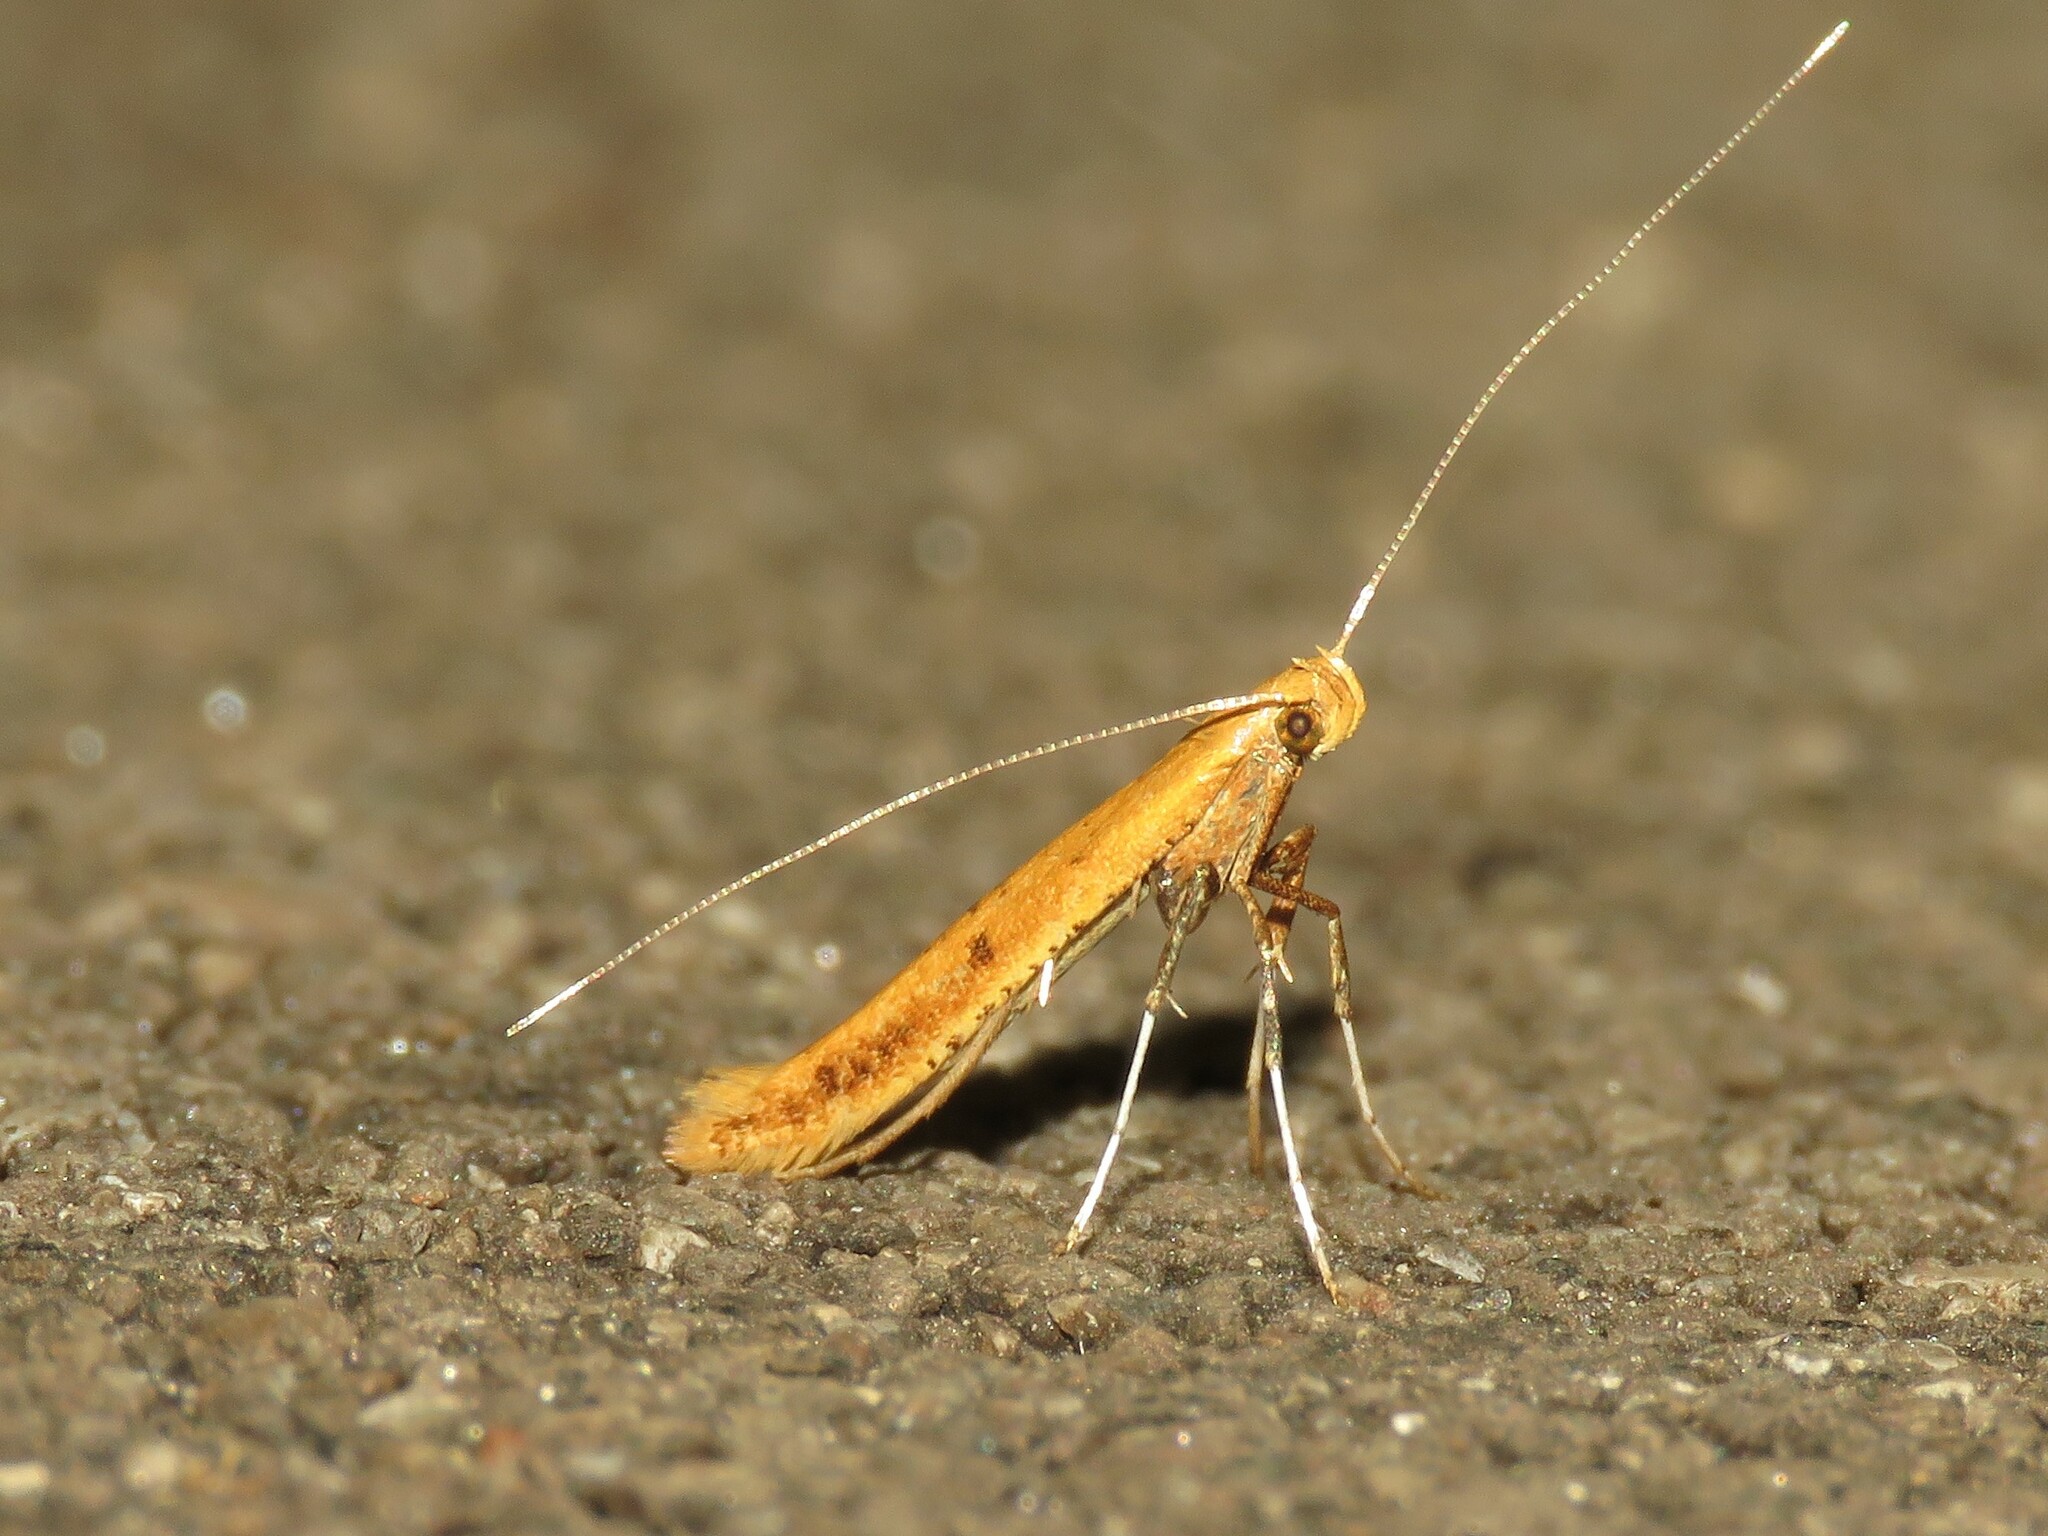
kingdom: Animalia
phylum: Arthropoda
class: Insecta
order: Lepidoptera
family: Gracillariidae
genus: Caloptilia
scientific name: Caloptilia alnicolella
